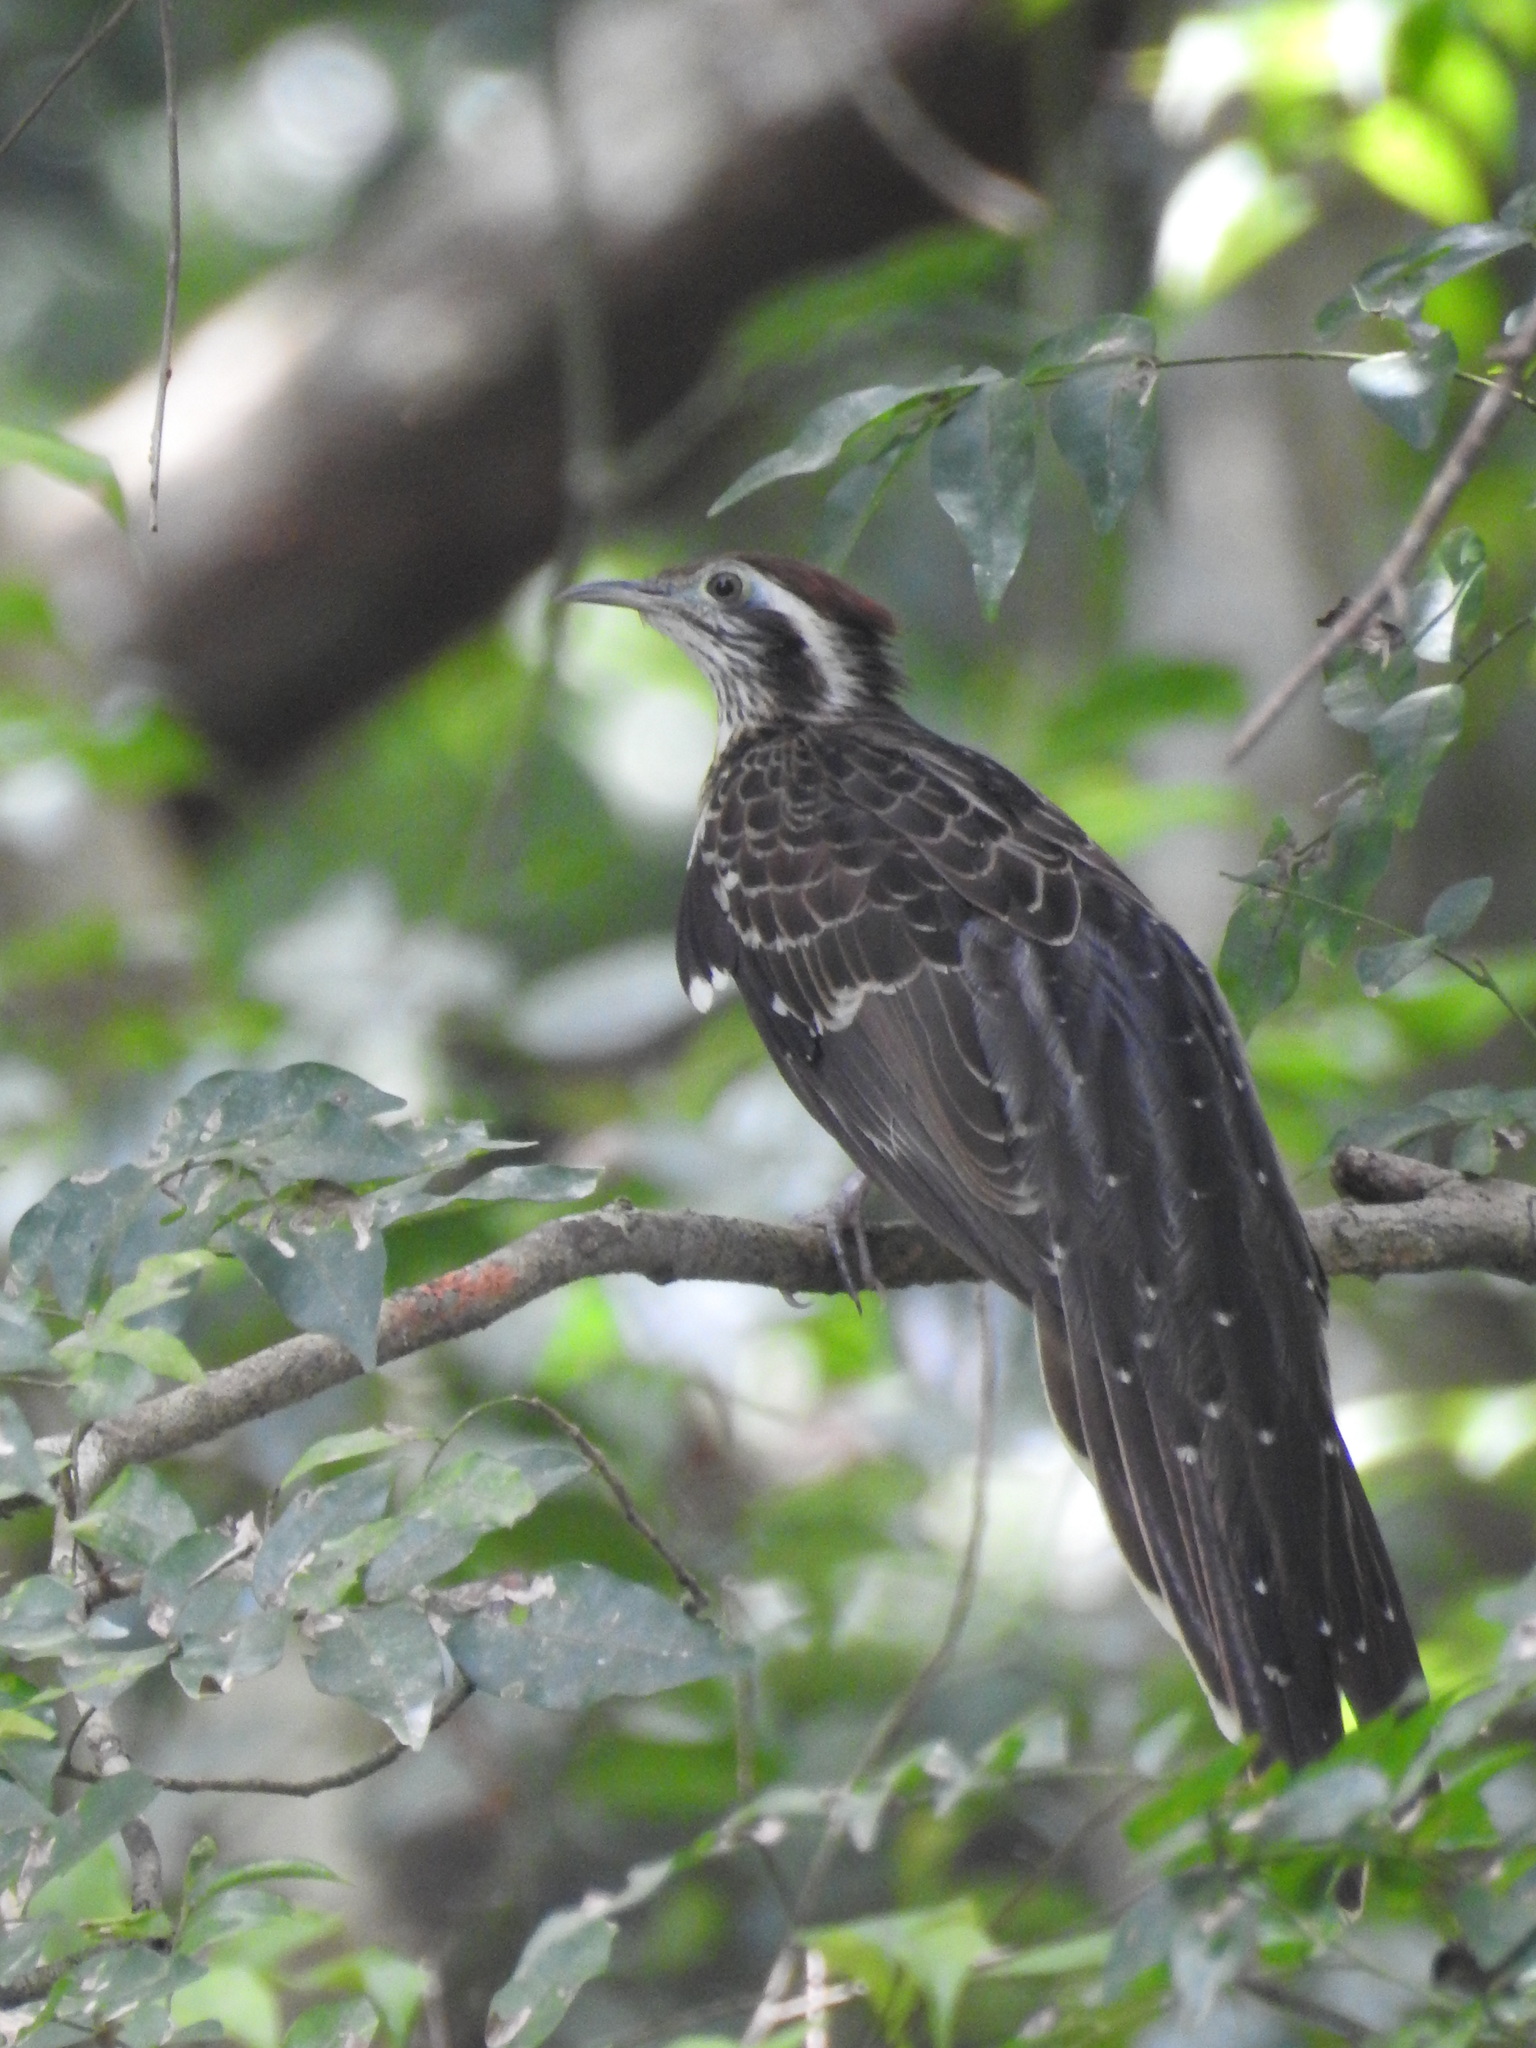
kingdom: Animalia
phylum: Chordata
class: Aves
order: Cuculiformes
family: Cuculidae
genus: Dromococcyx
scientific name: Dromococcyx phasianellus
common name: Pheasant cuckoo
